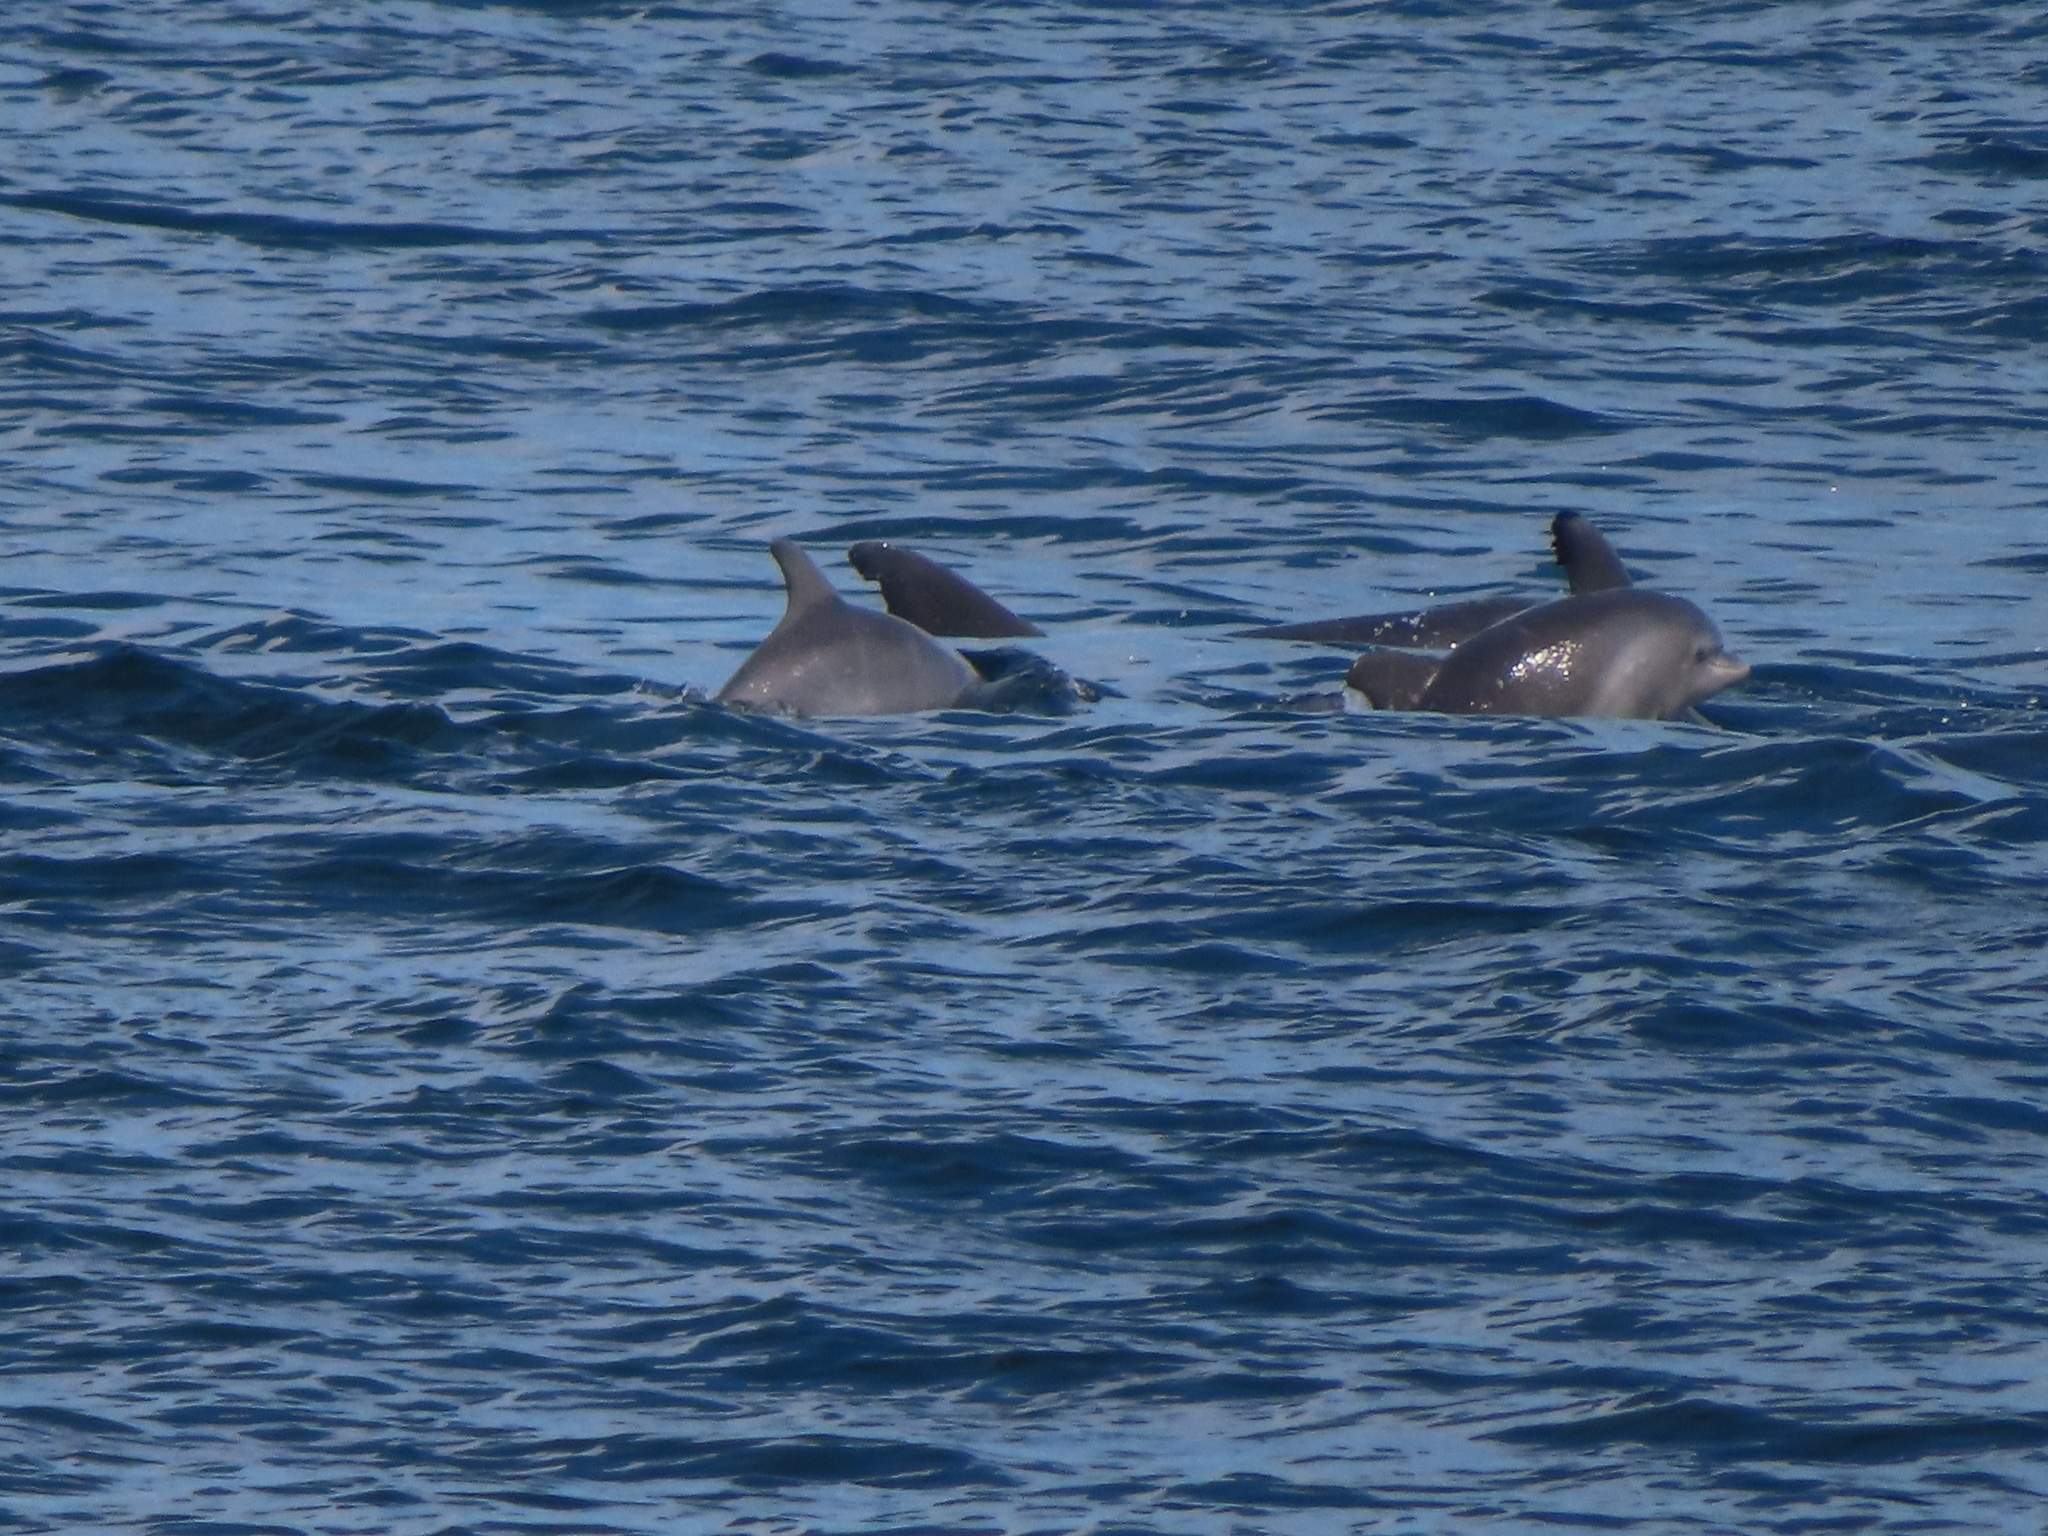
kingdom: Animalia
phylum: Chordata
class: Mammalia
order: Cetacea
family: Delphinidae
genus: Tursiops
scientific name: Tursiops truncatus
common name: Bottlenose dolphin
